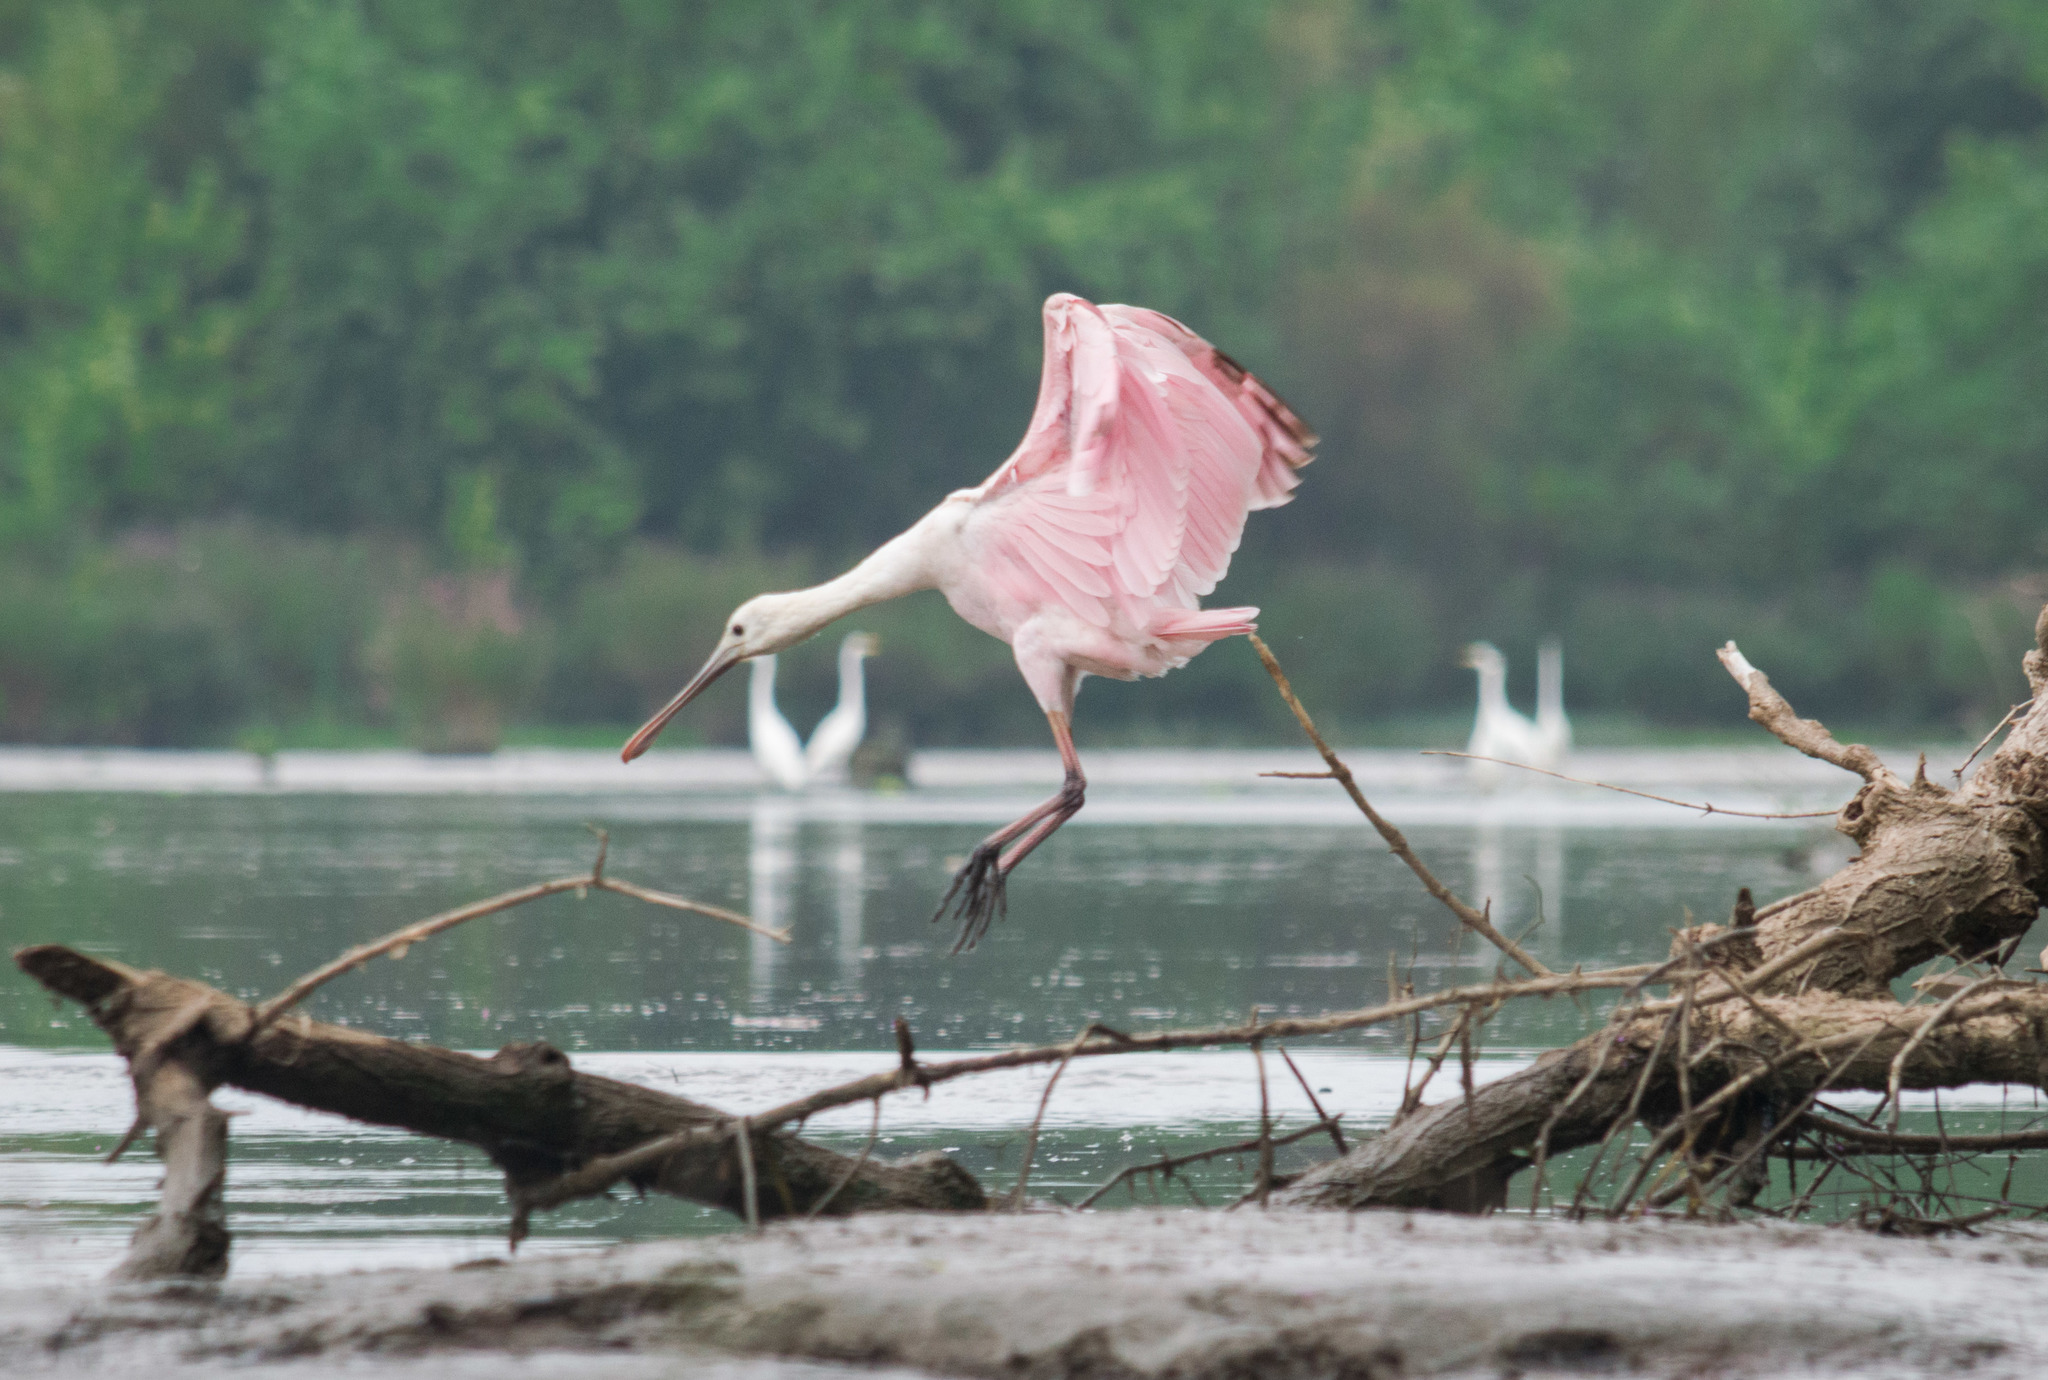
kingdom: Animalia
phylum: Chordata
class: Aves
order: Pelecaniformes
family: Threskiornithidae
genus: Platalea
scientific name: Platalea ajaja
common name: Roseate spoonbill
